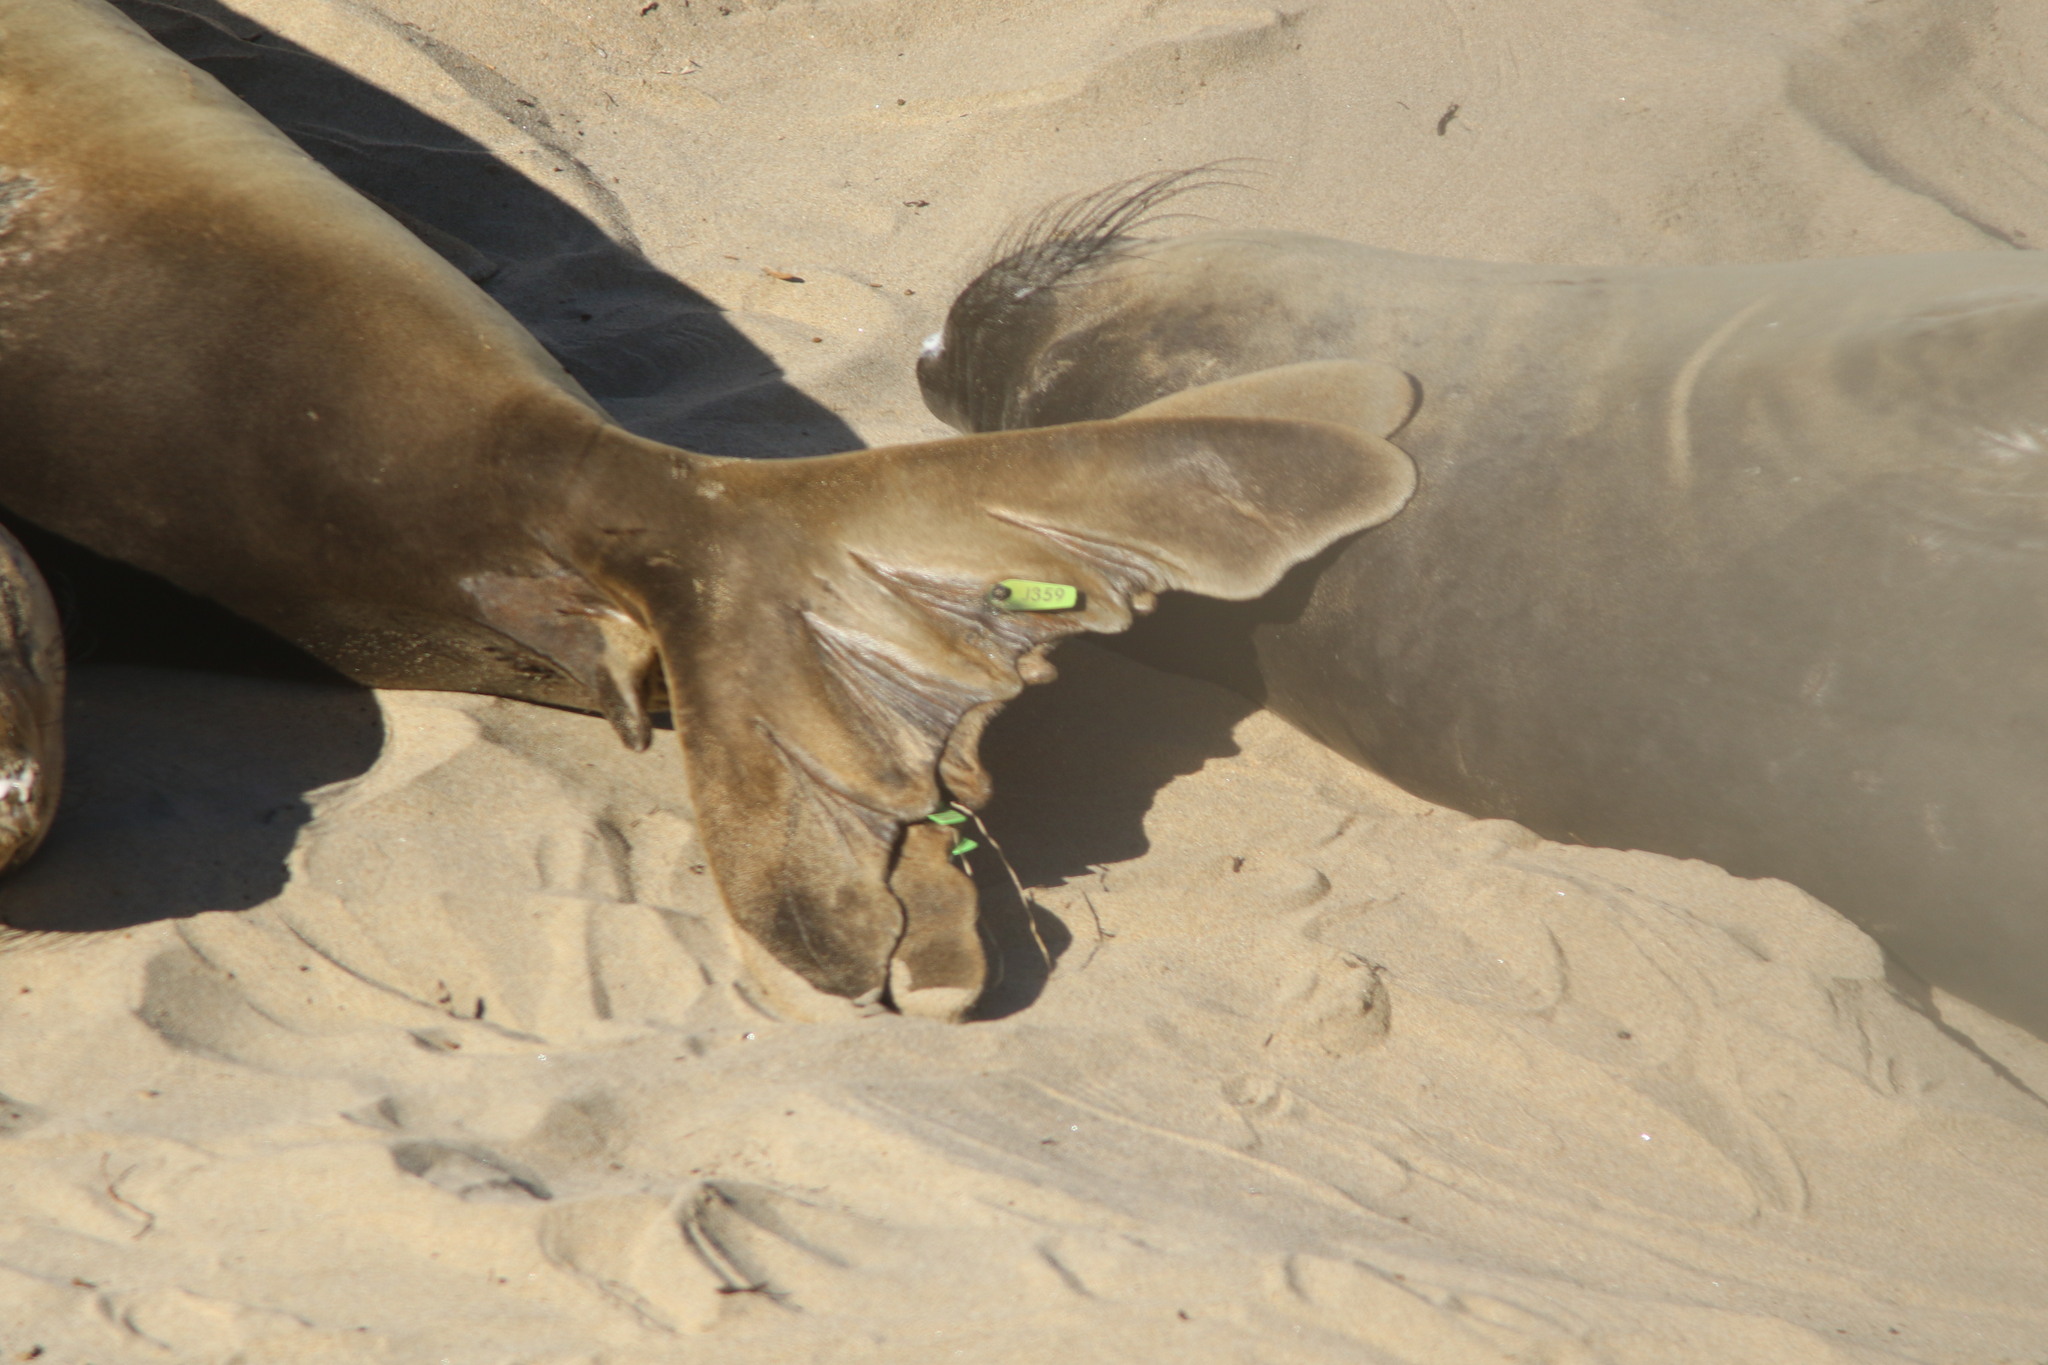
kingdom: Animalia
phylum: Chordata
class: Mammalia
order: Carnivora
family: Phocidae
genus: Mirounga
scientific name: Mirounga angustirostris
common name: Northern elephant seal
